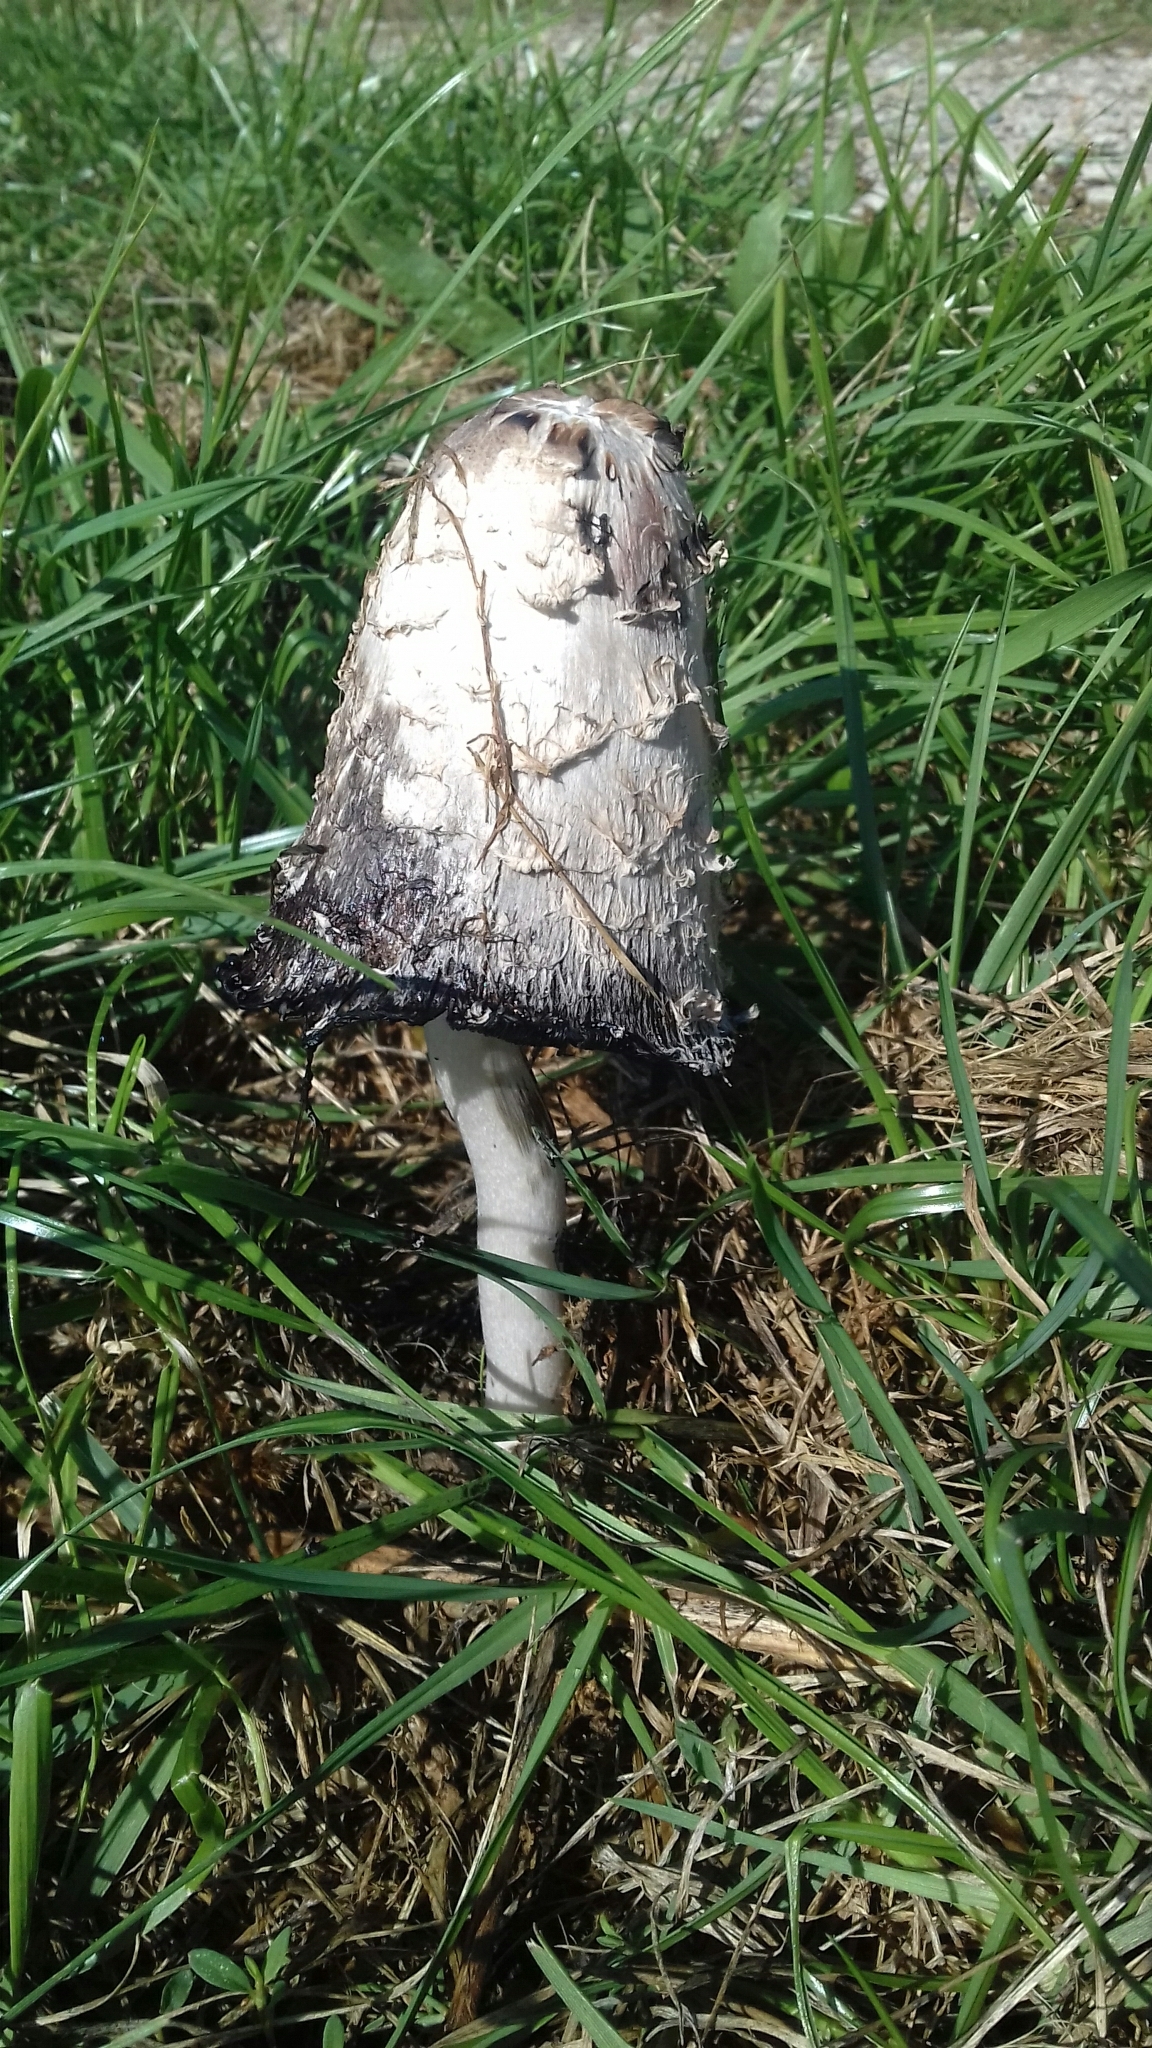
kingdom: Fungi
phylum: Basidiomycota
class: Agaricomycetes
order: Agaricales
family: Agaricaceae
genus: Coprinus
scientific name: Coprinus comatus
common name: Lawyer's wig
